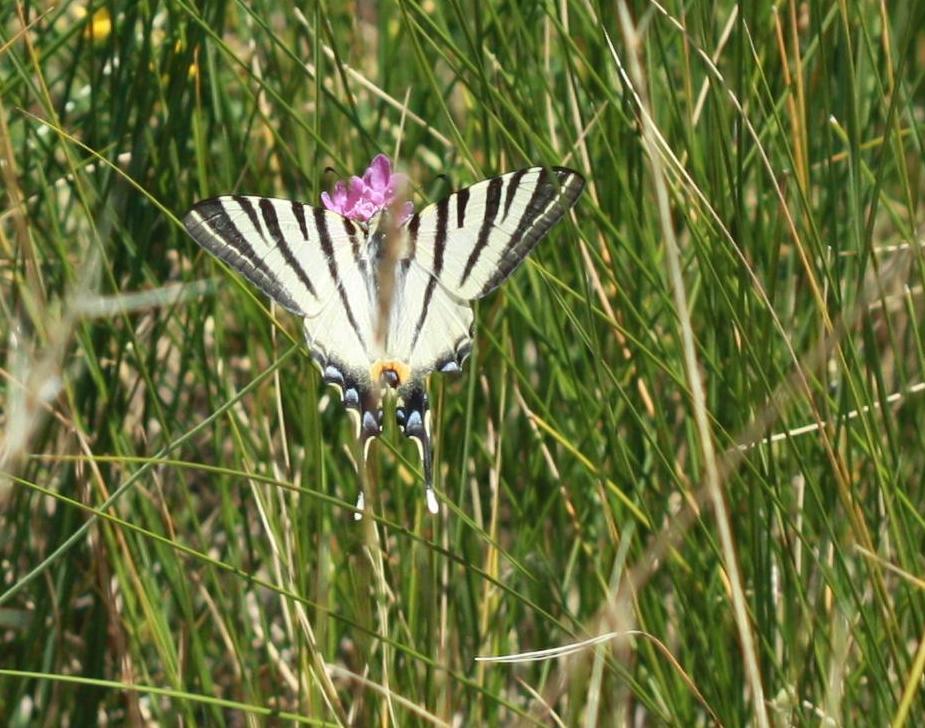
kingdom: Animalia
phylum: Arthropoda
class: Insecta
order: Lepidoptera
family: Papilionidae
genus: Iphiclides
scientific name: Iphiclides podalirius
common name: Scarce swallowtail
